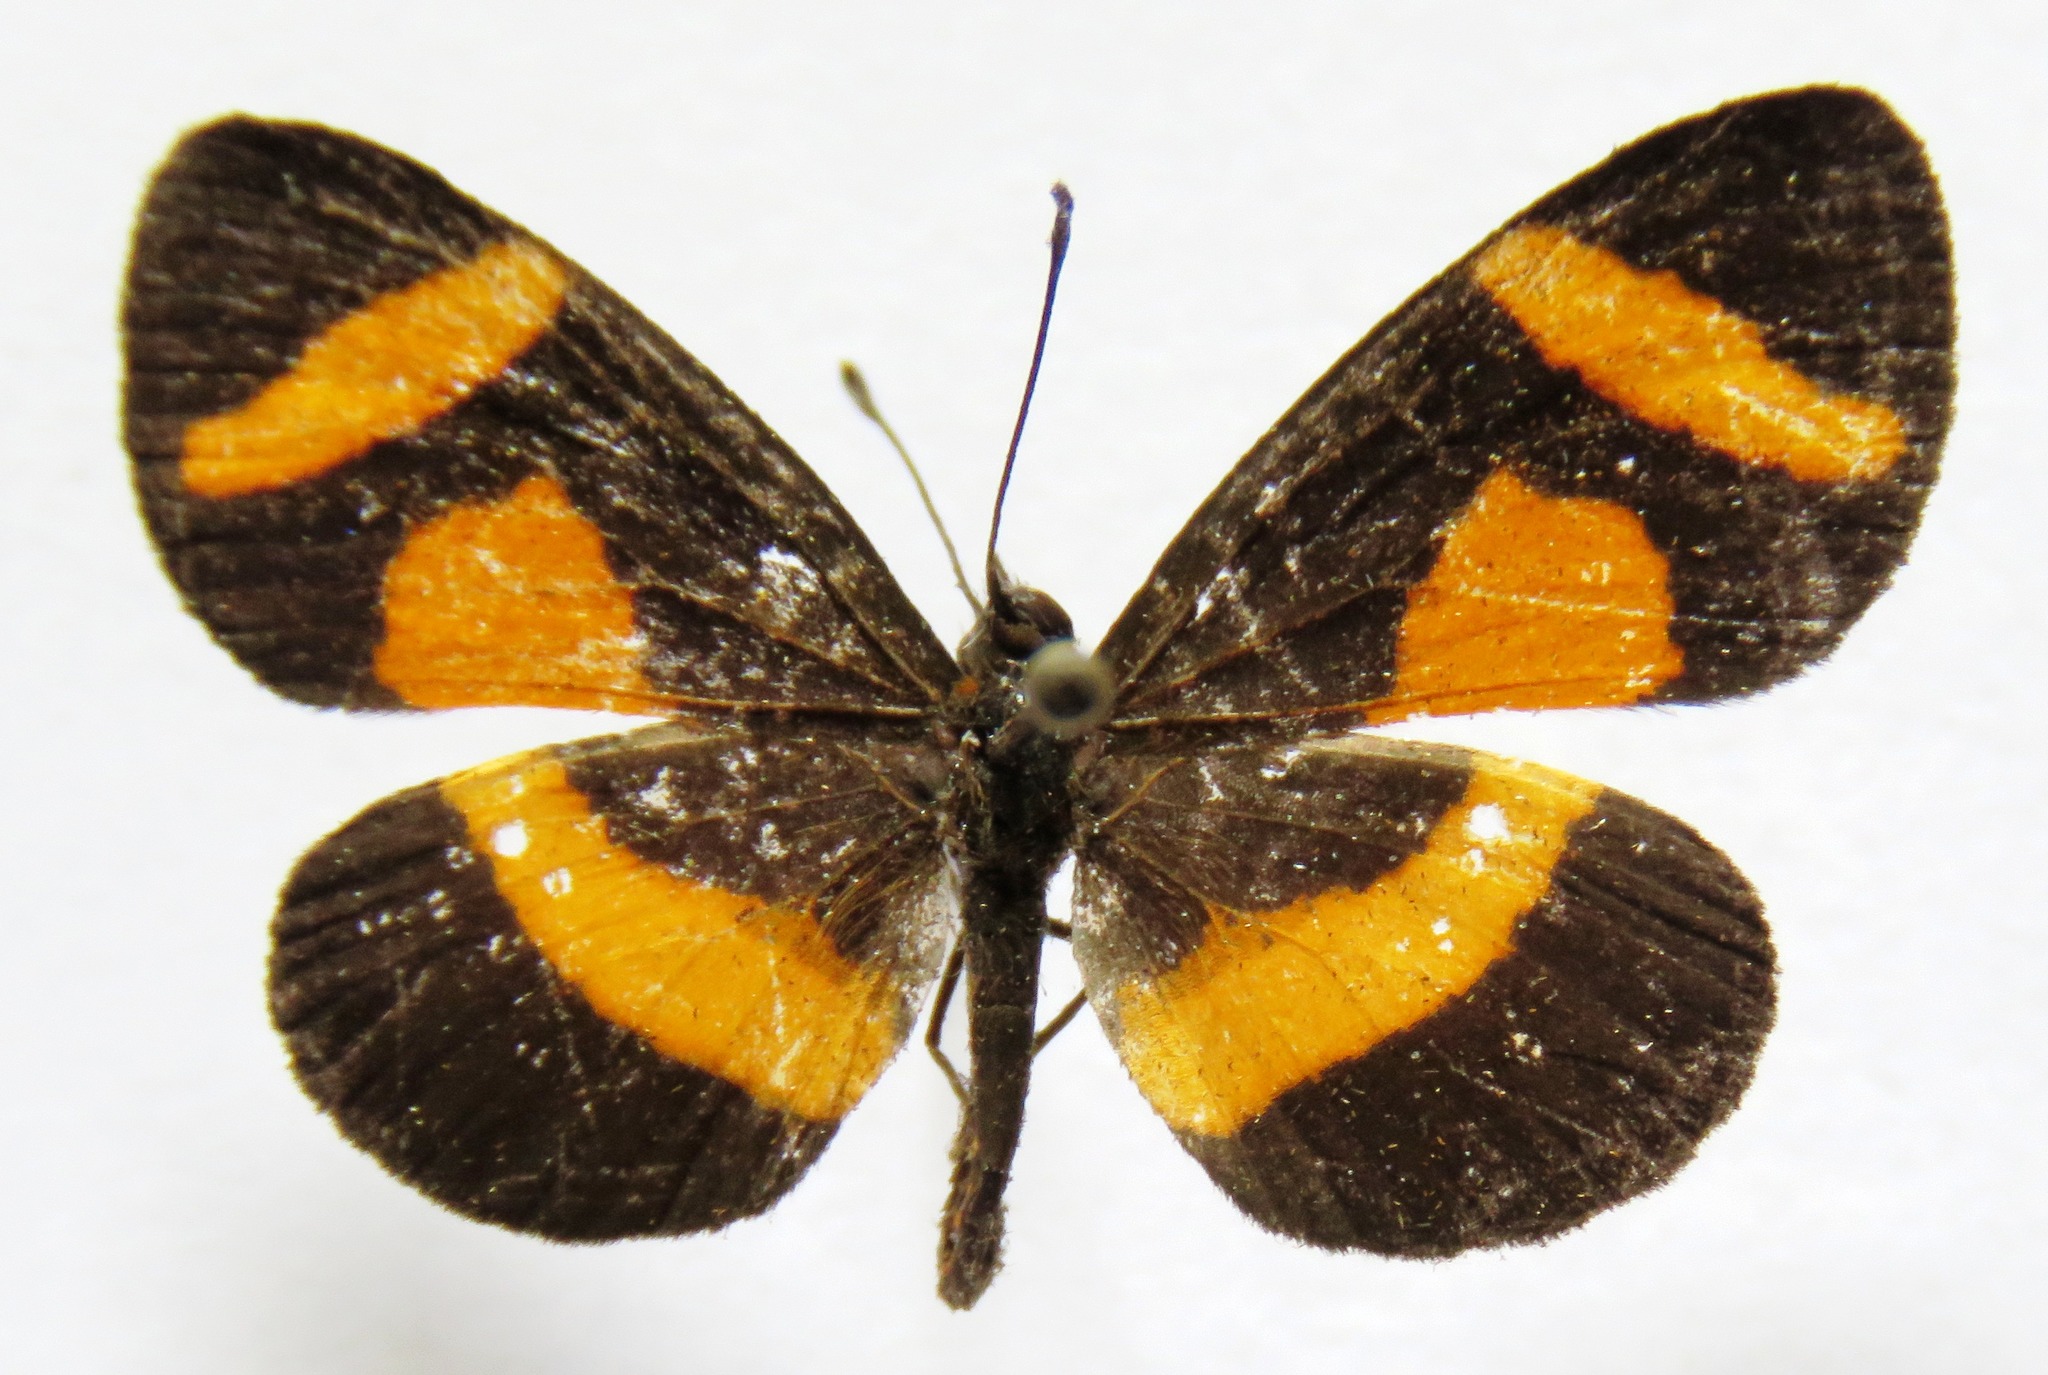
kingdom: Animalia
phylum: Arthropoda
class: Insecta
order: Lepidoptera
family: Nymphalidae
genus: Microtia
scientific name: Microtia elva
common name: Elf
